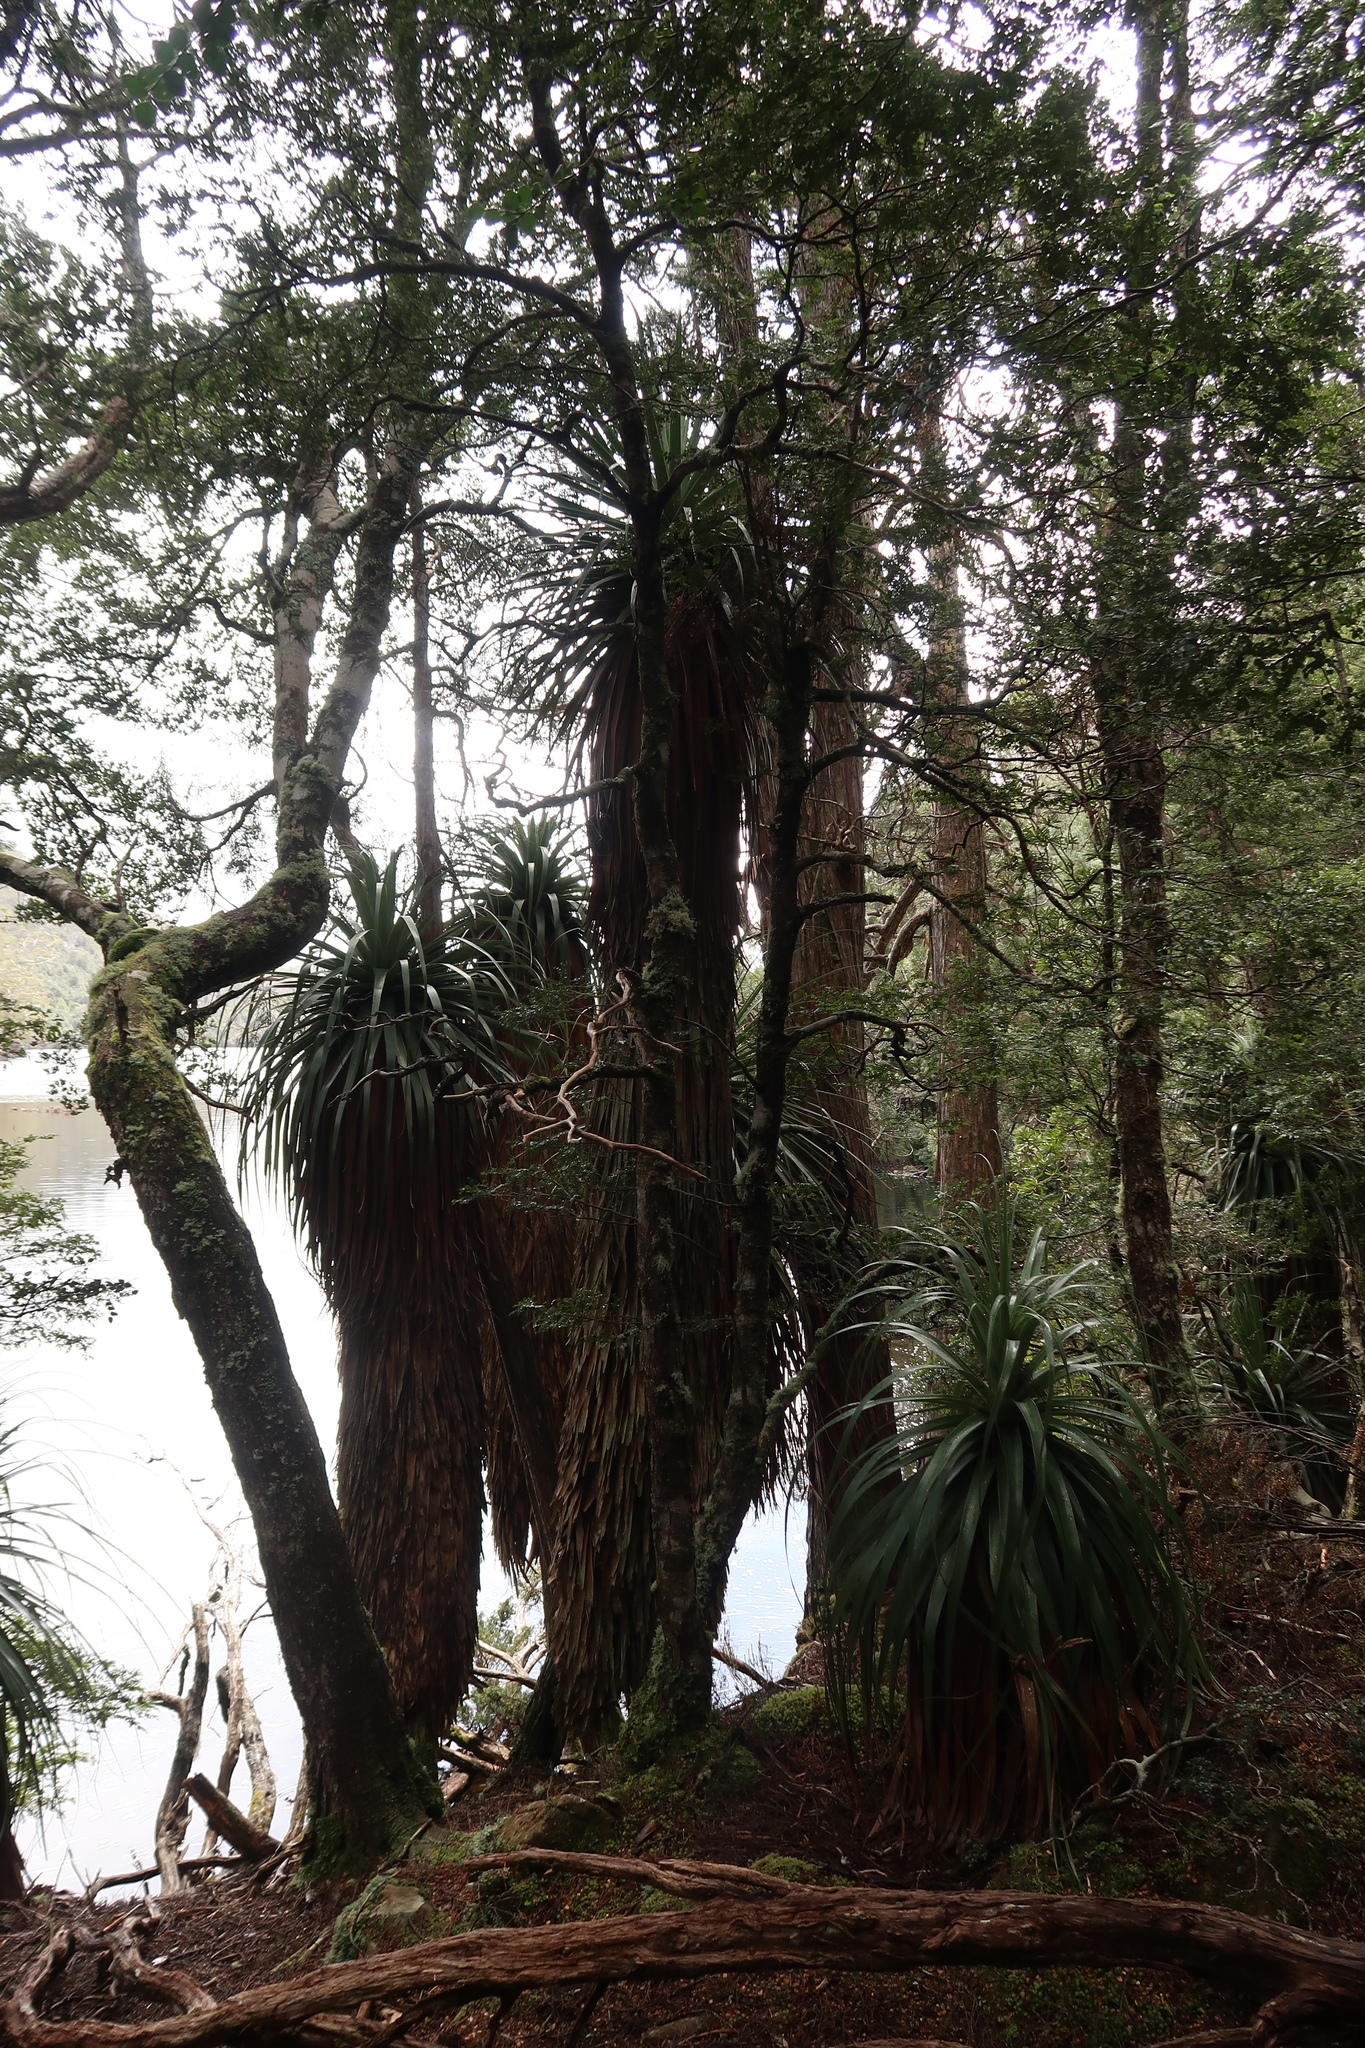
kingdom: Plantae
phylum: Tracheophyta
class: Magnoliopsida
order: Ericales
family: Ericaceae
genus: Dracophyllum
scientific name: Dracophyllum pandanifolium
